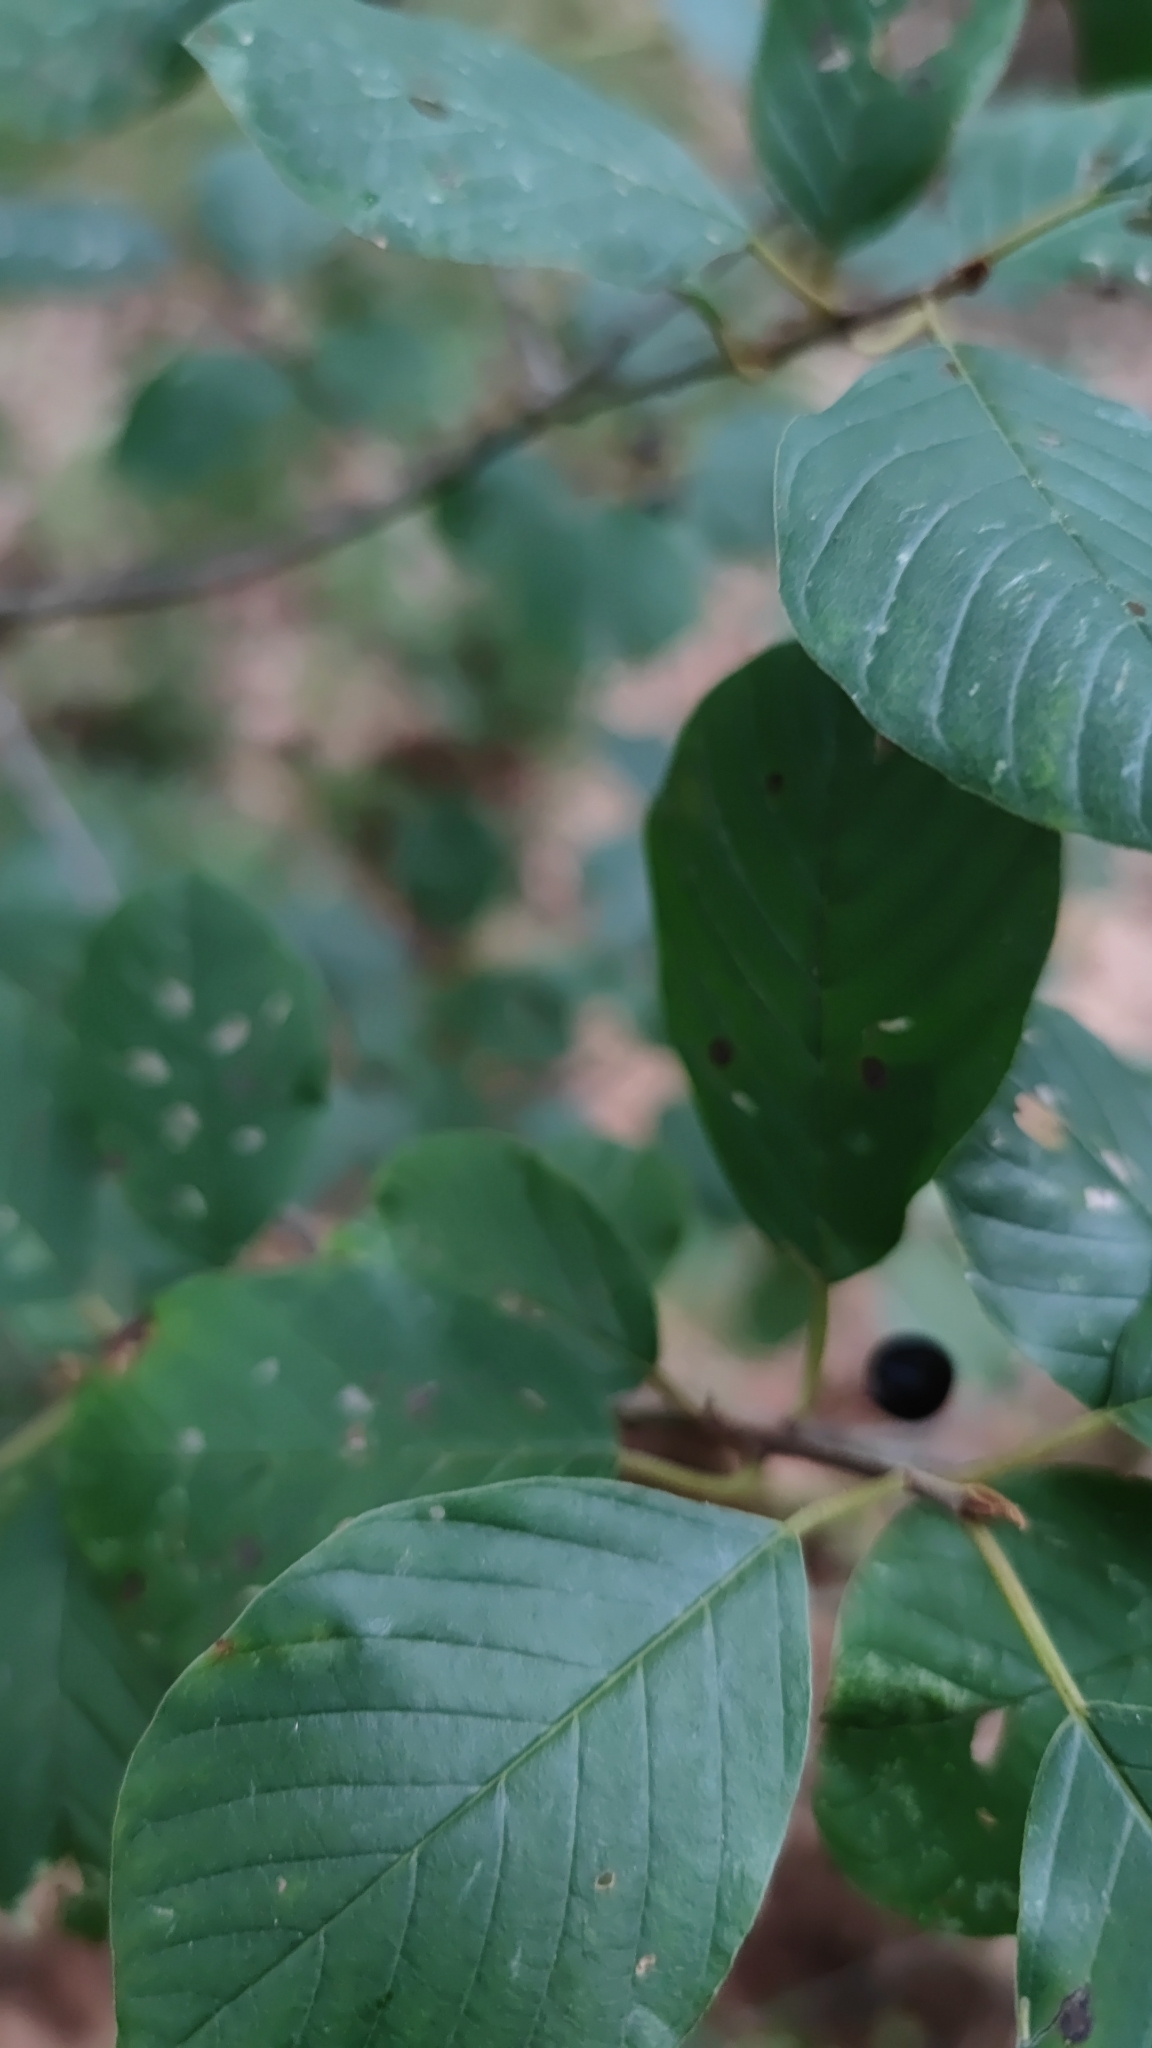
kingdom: Plantae
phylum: Tracheophyta
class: Magnoliopsida
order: Rosales
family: Rhamnaceae
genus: Frangula
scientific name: Frangula alnus
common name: Alder buckthorn
